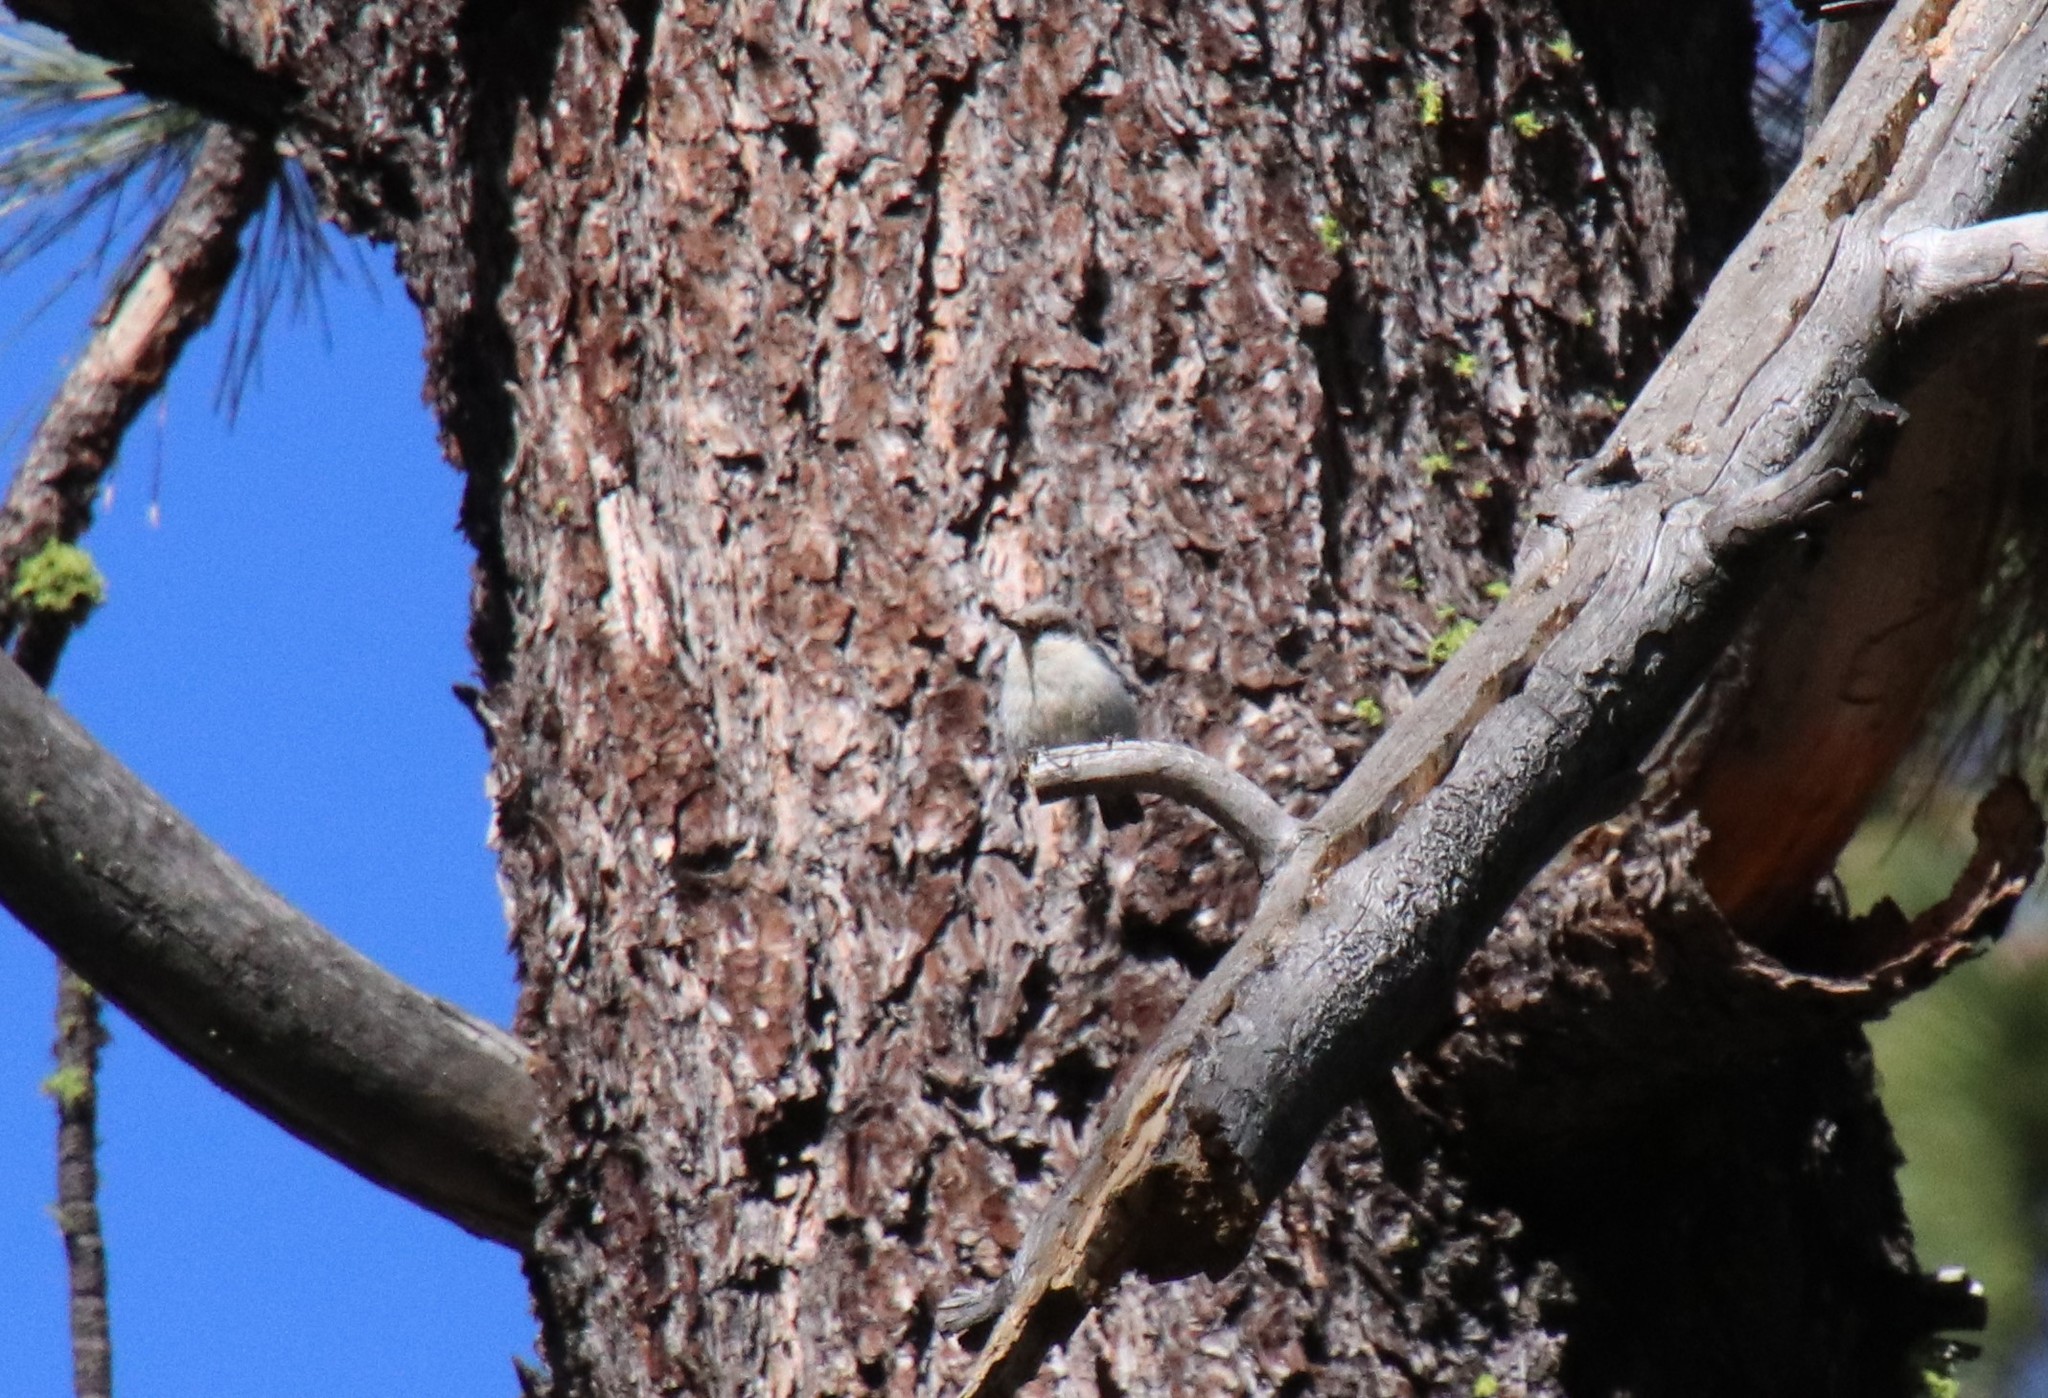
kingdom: Animalia
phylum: Chordata
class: Aves
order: Passeriformes
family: Sittidae
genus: Sitta
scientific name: Sitta pygmaea
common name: Pygmy nuthatch
